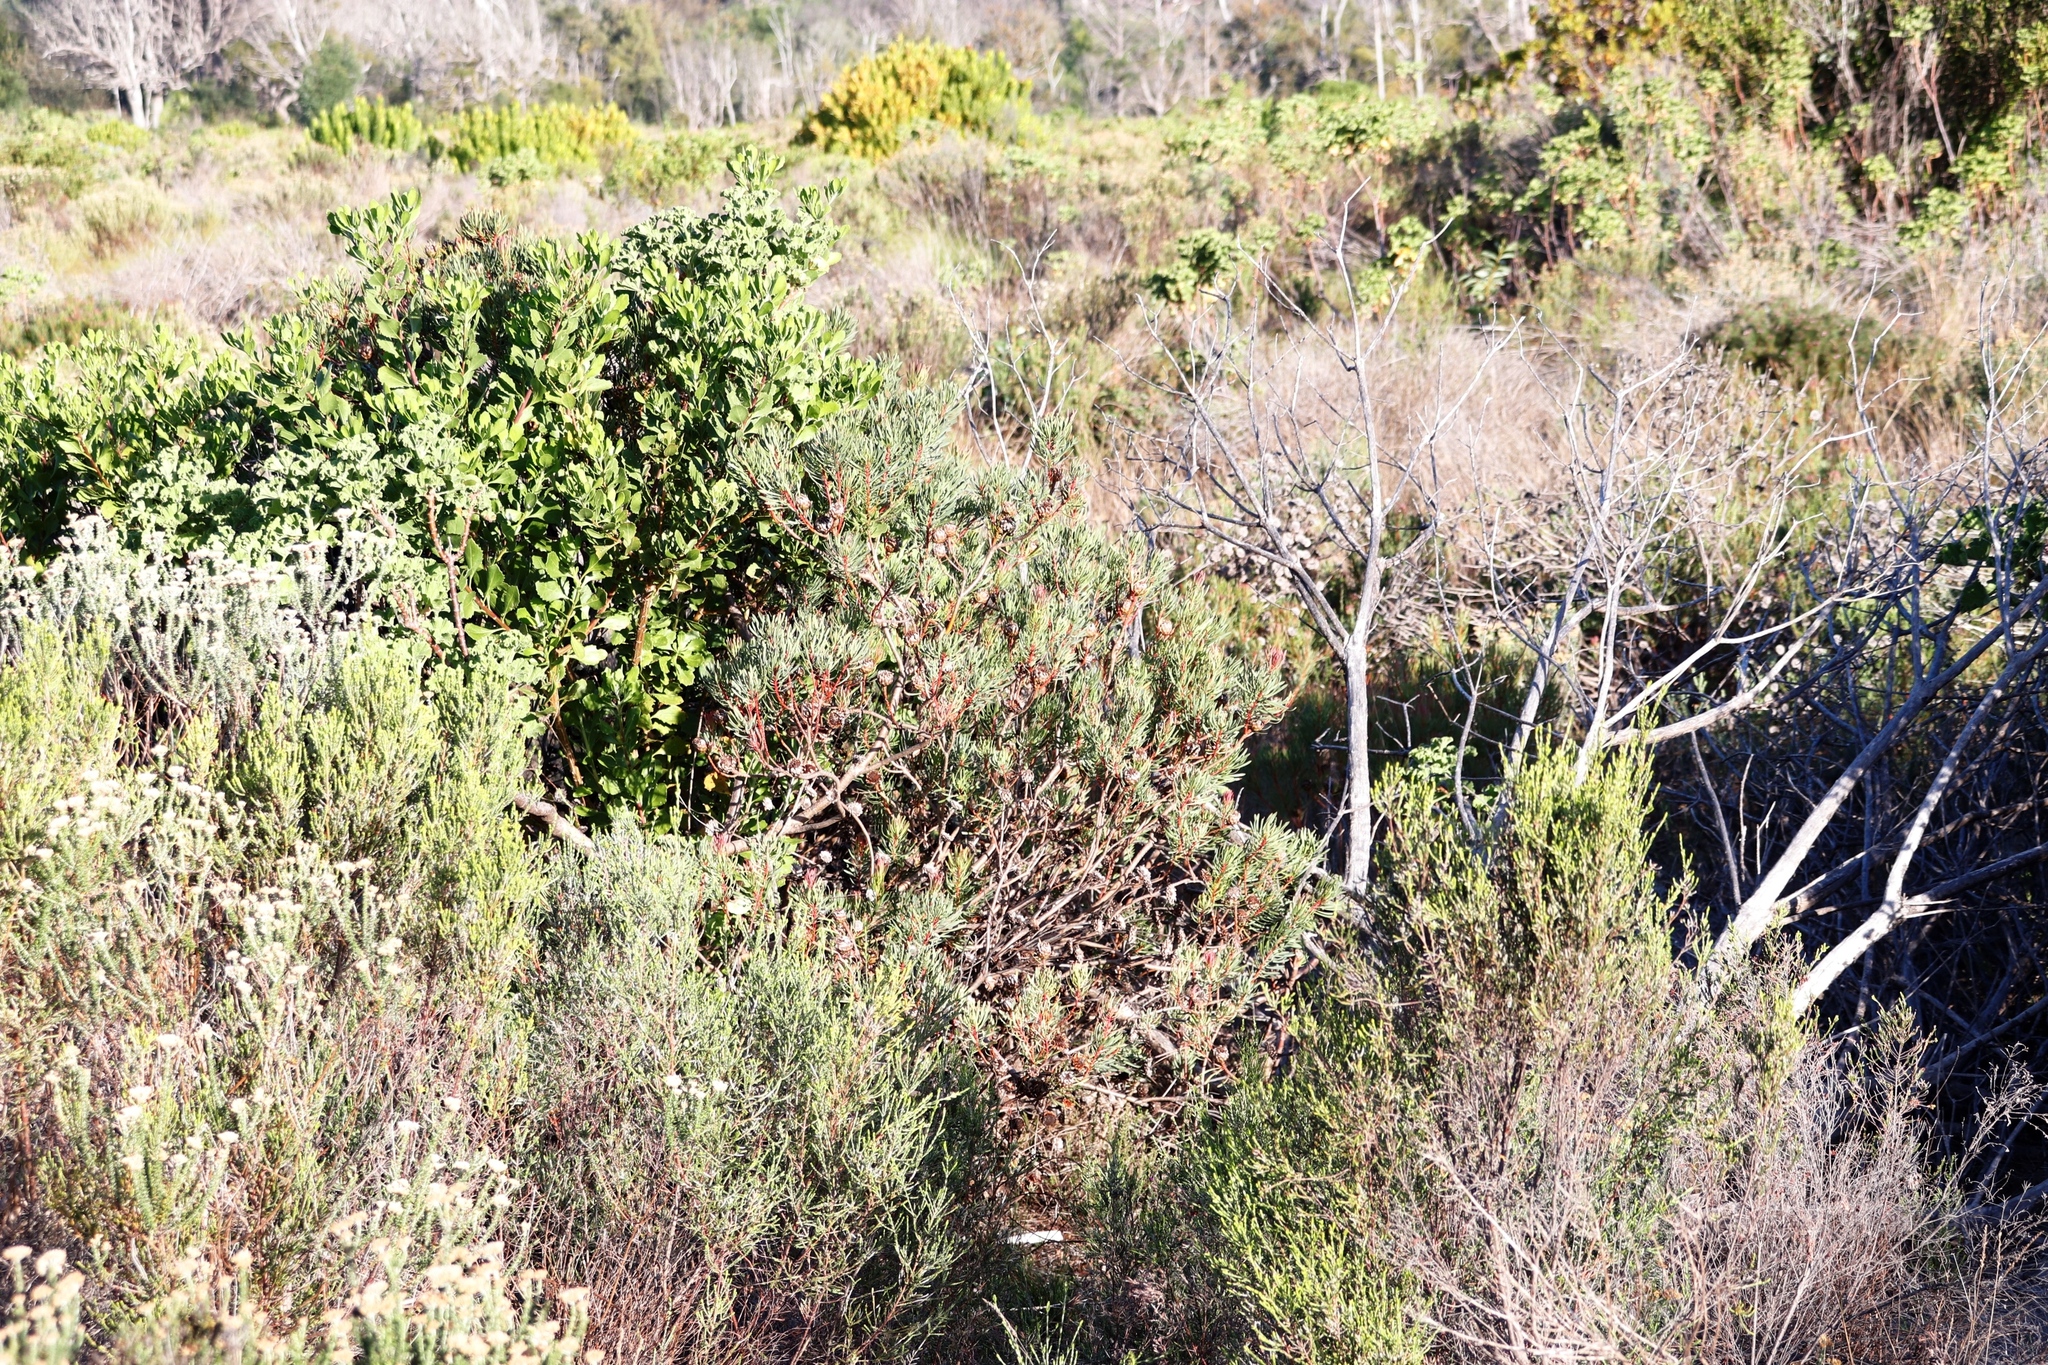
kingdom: Plantae
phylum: Tracheophyta
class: Magnoliopsida
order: Proteales
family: Proteaceae
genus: Protea
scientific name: Protea scolymocephala
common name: Thistle sugarbush
